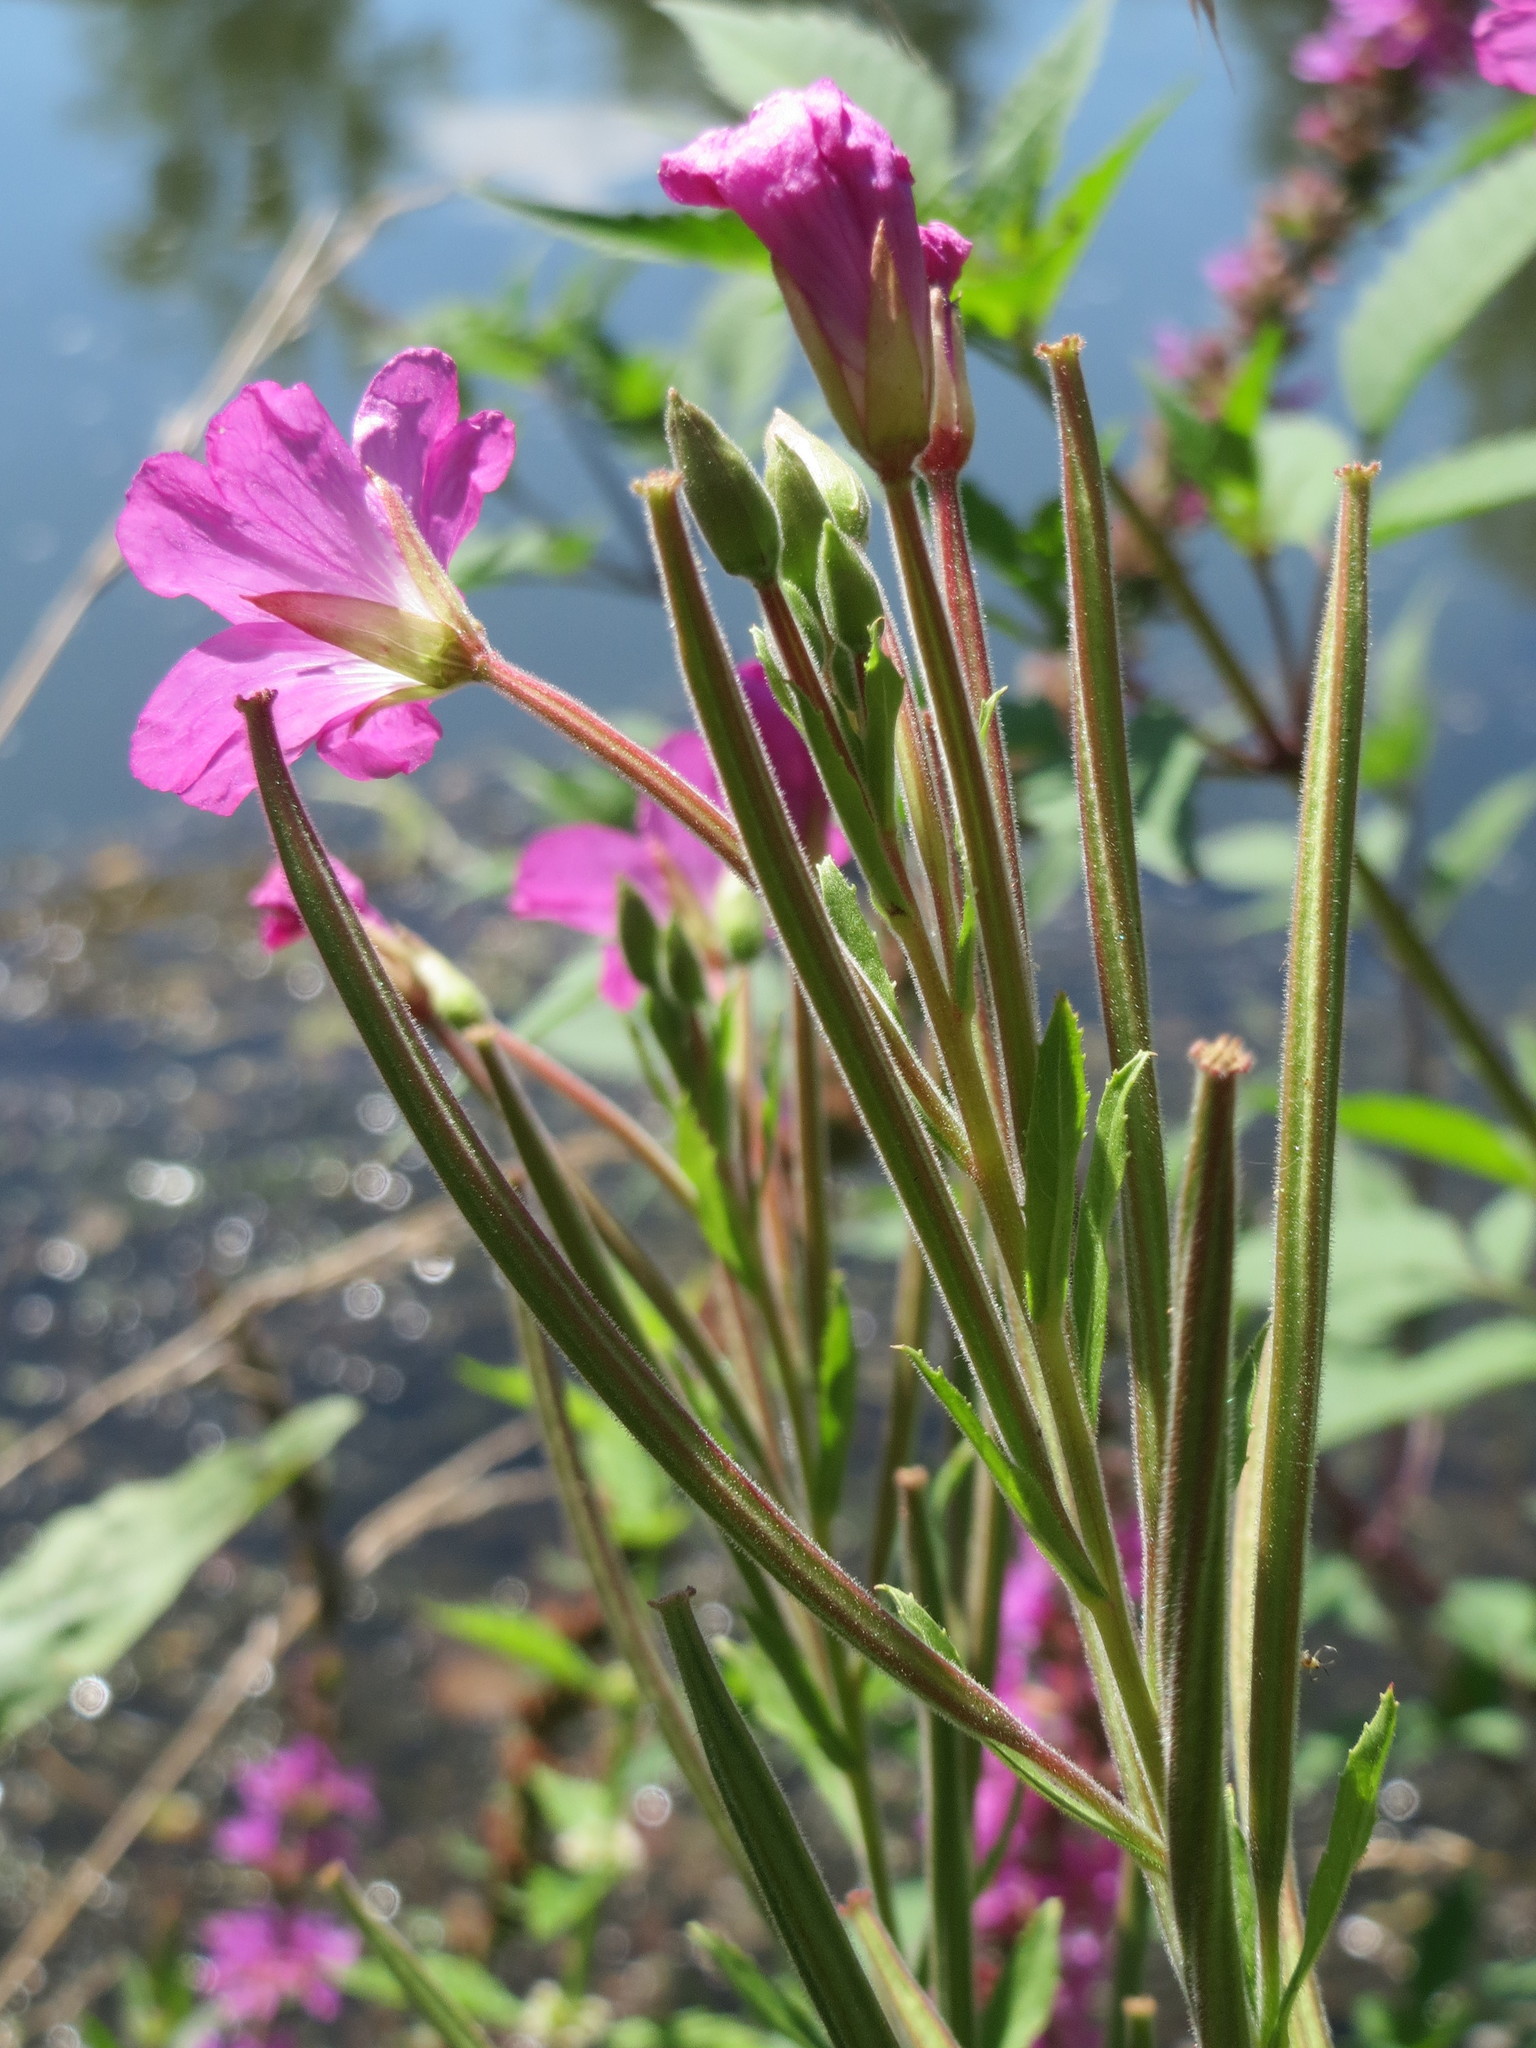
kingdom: Plantae
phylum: Tracheophyta
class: Magnoliopsida
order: Myrtales
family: Onagraceae
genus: Epilobium
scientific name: Epilobium hirsutum
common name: Great willowherb
